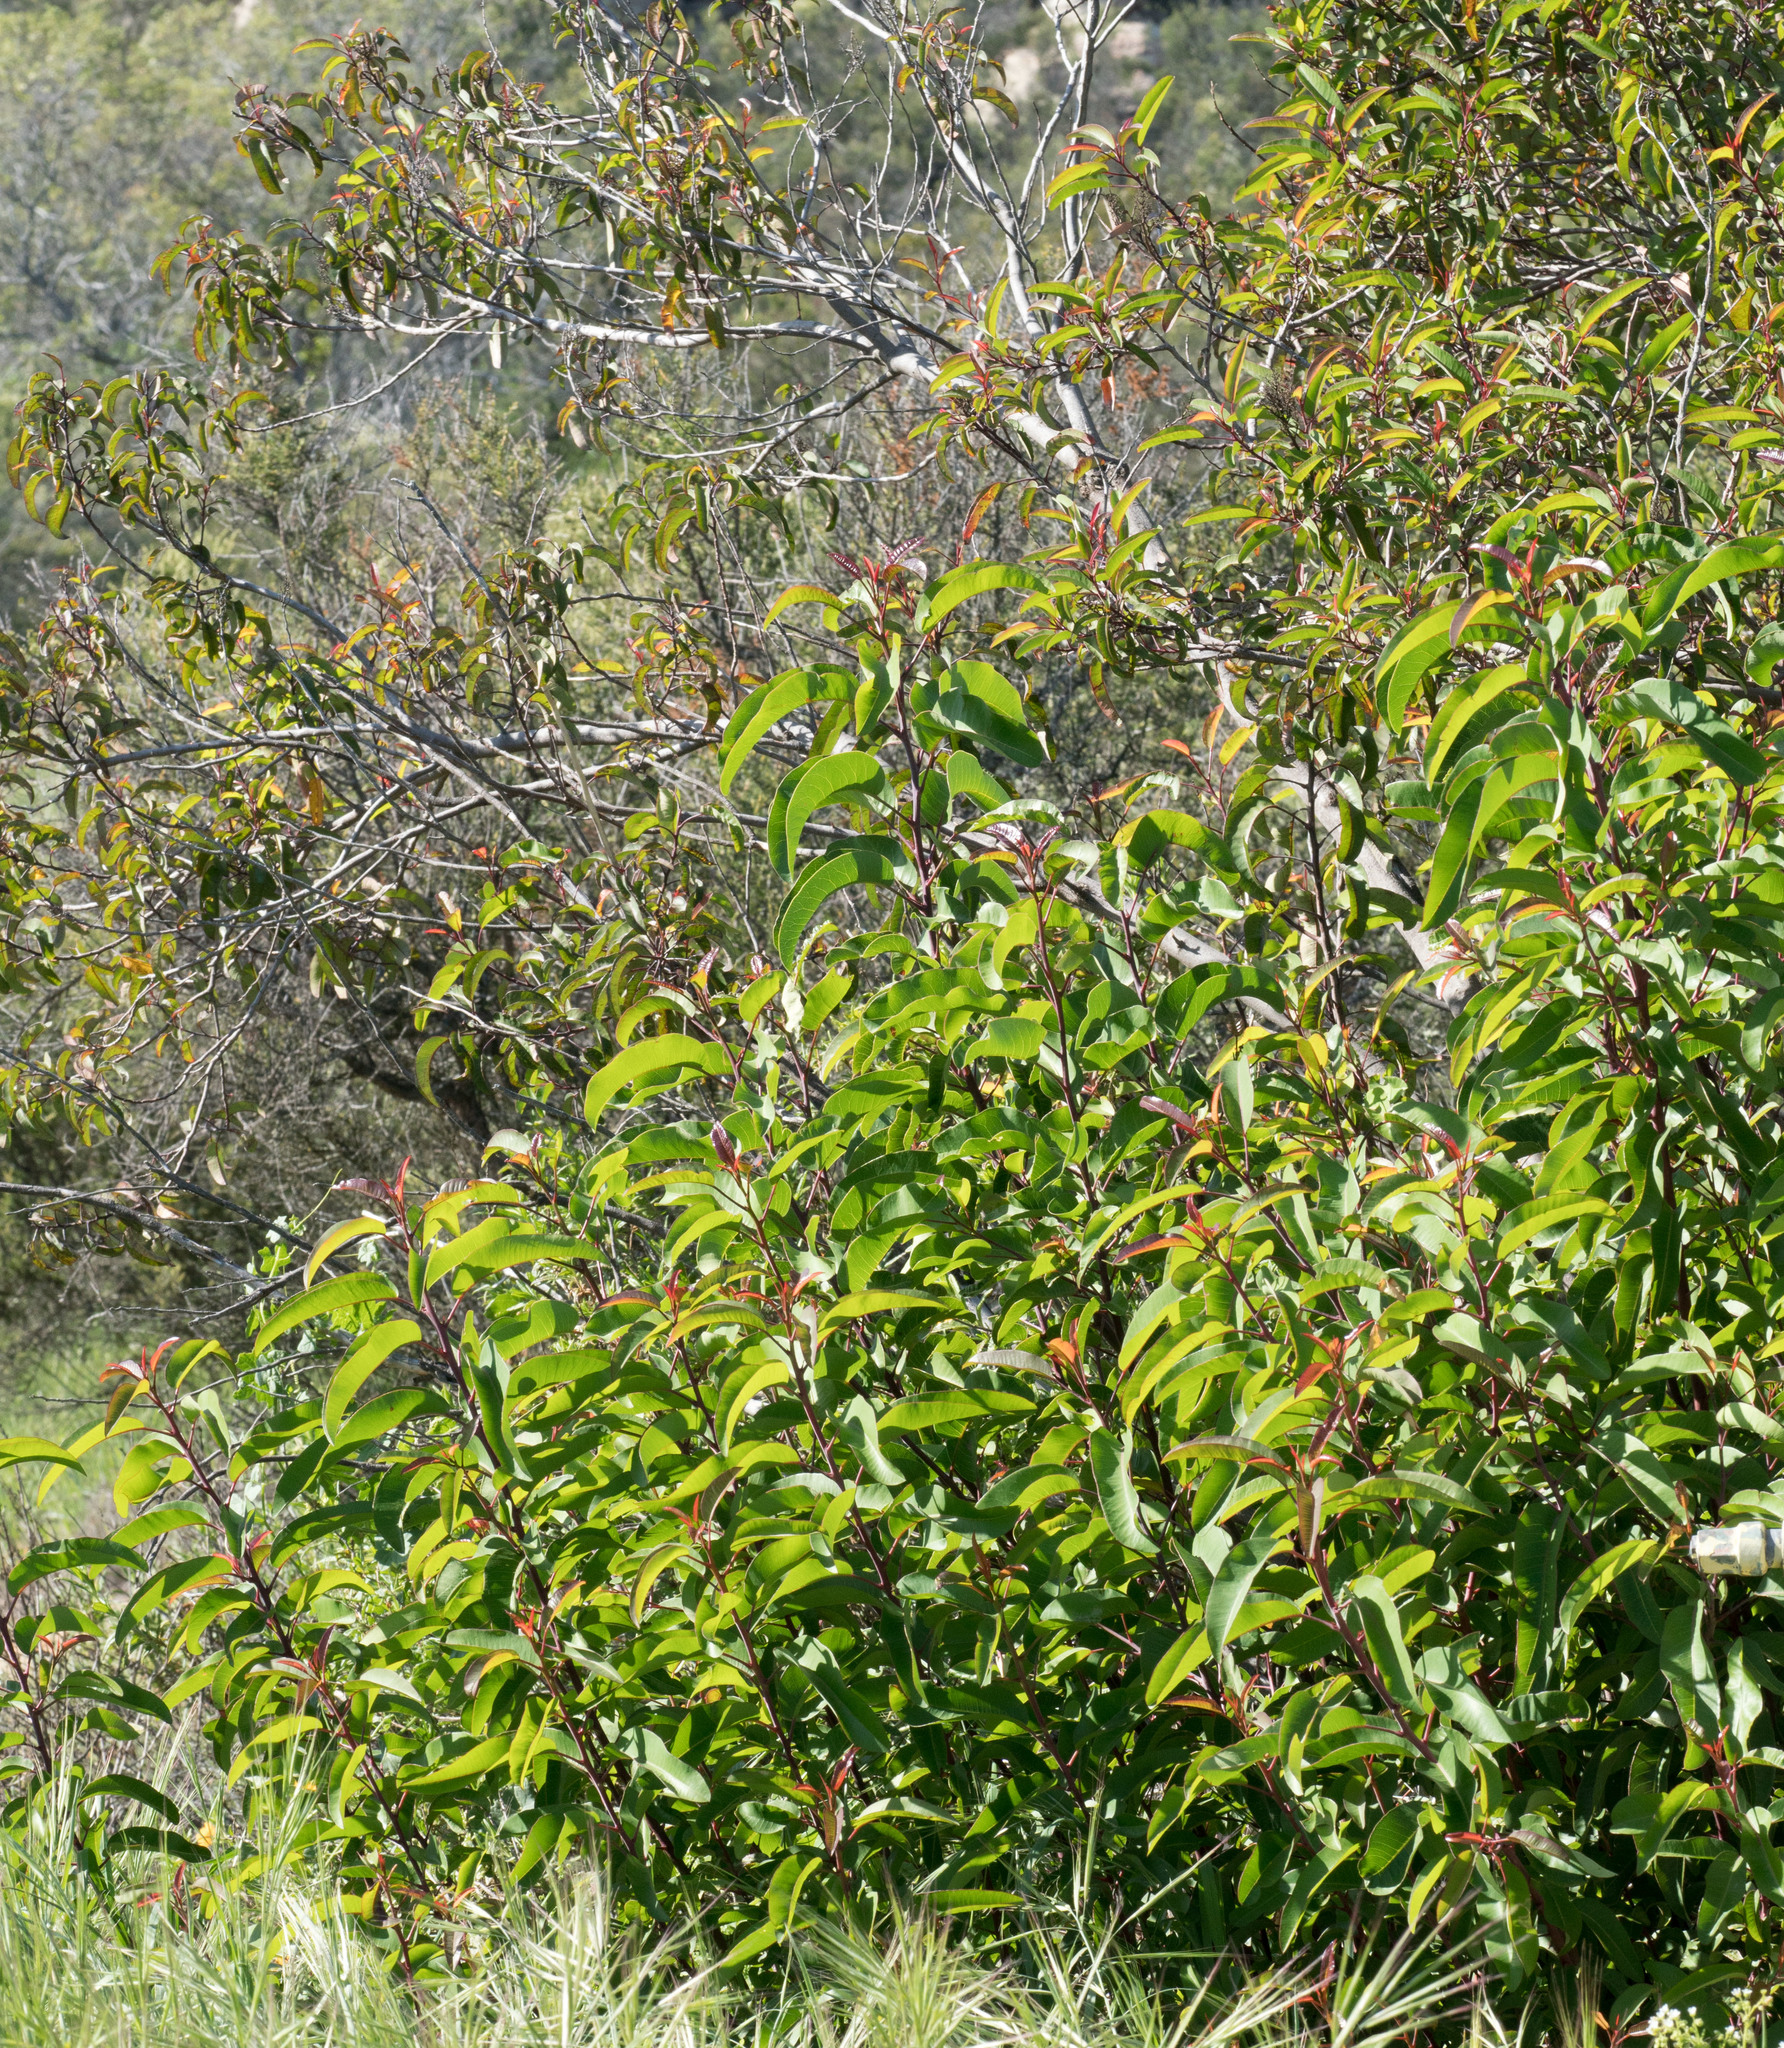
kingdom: Plantae
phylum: Tracheophyta
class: Magnoliopsida
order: Sapindales
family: Anacardiaceae
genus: Malosma
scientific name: Malosma laurina
